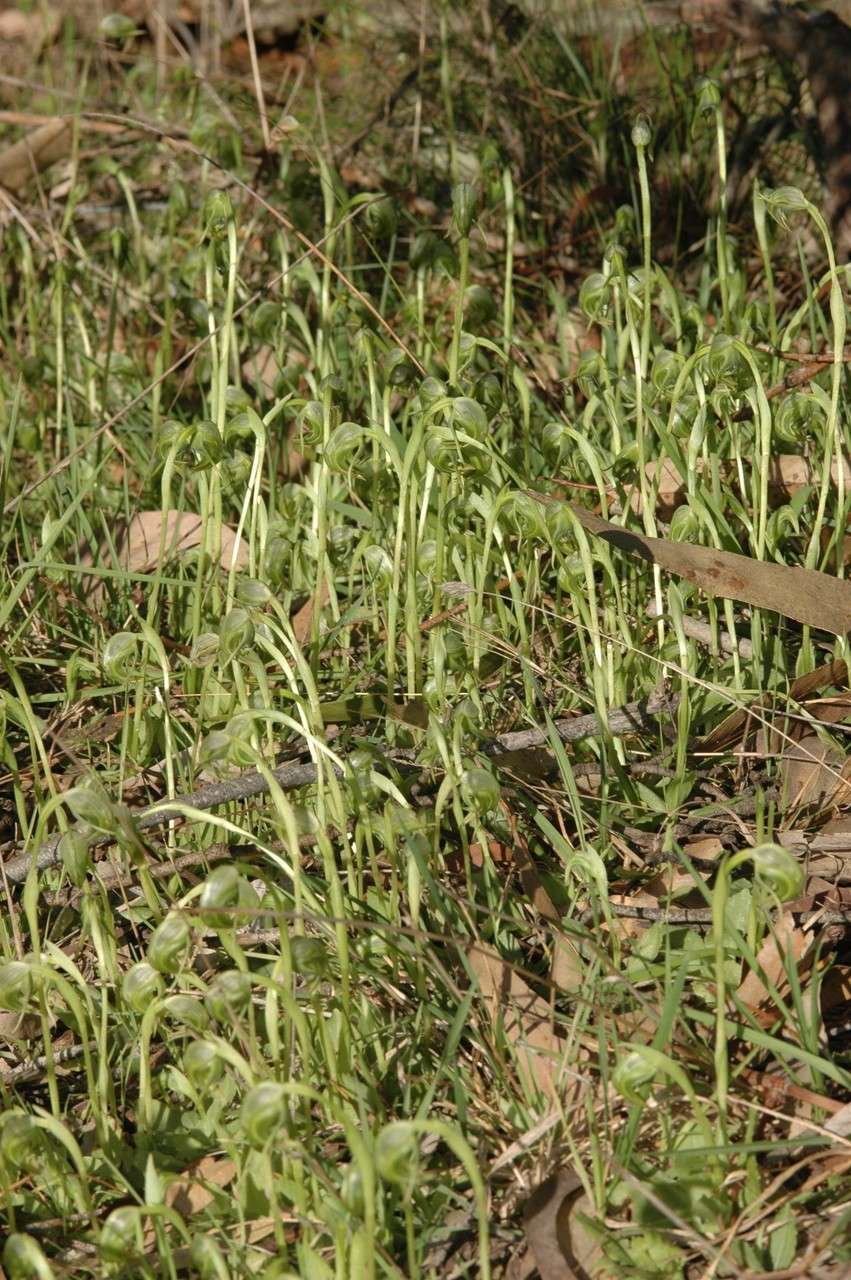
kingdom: Plantae
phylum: Tracheophyta
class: Liliopsida
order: Asparagales
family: Orchidaceae
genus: Pterostylis
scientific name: Pterostylis nutans
